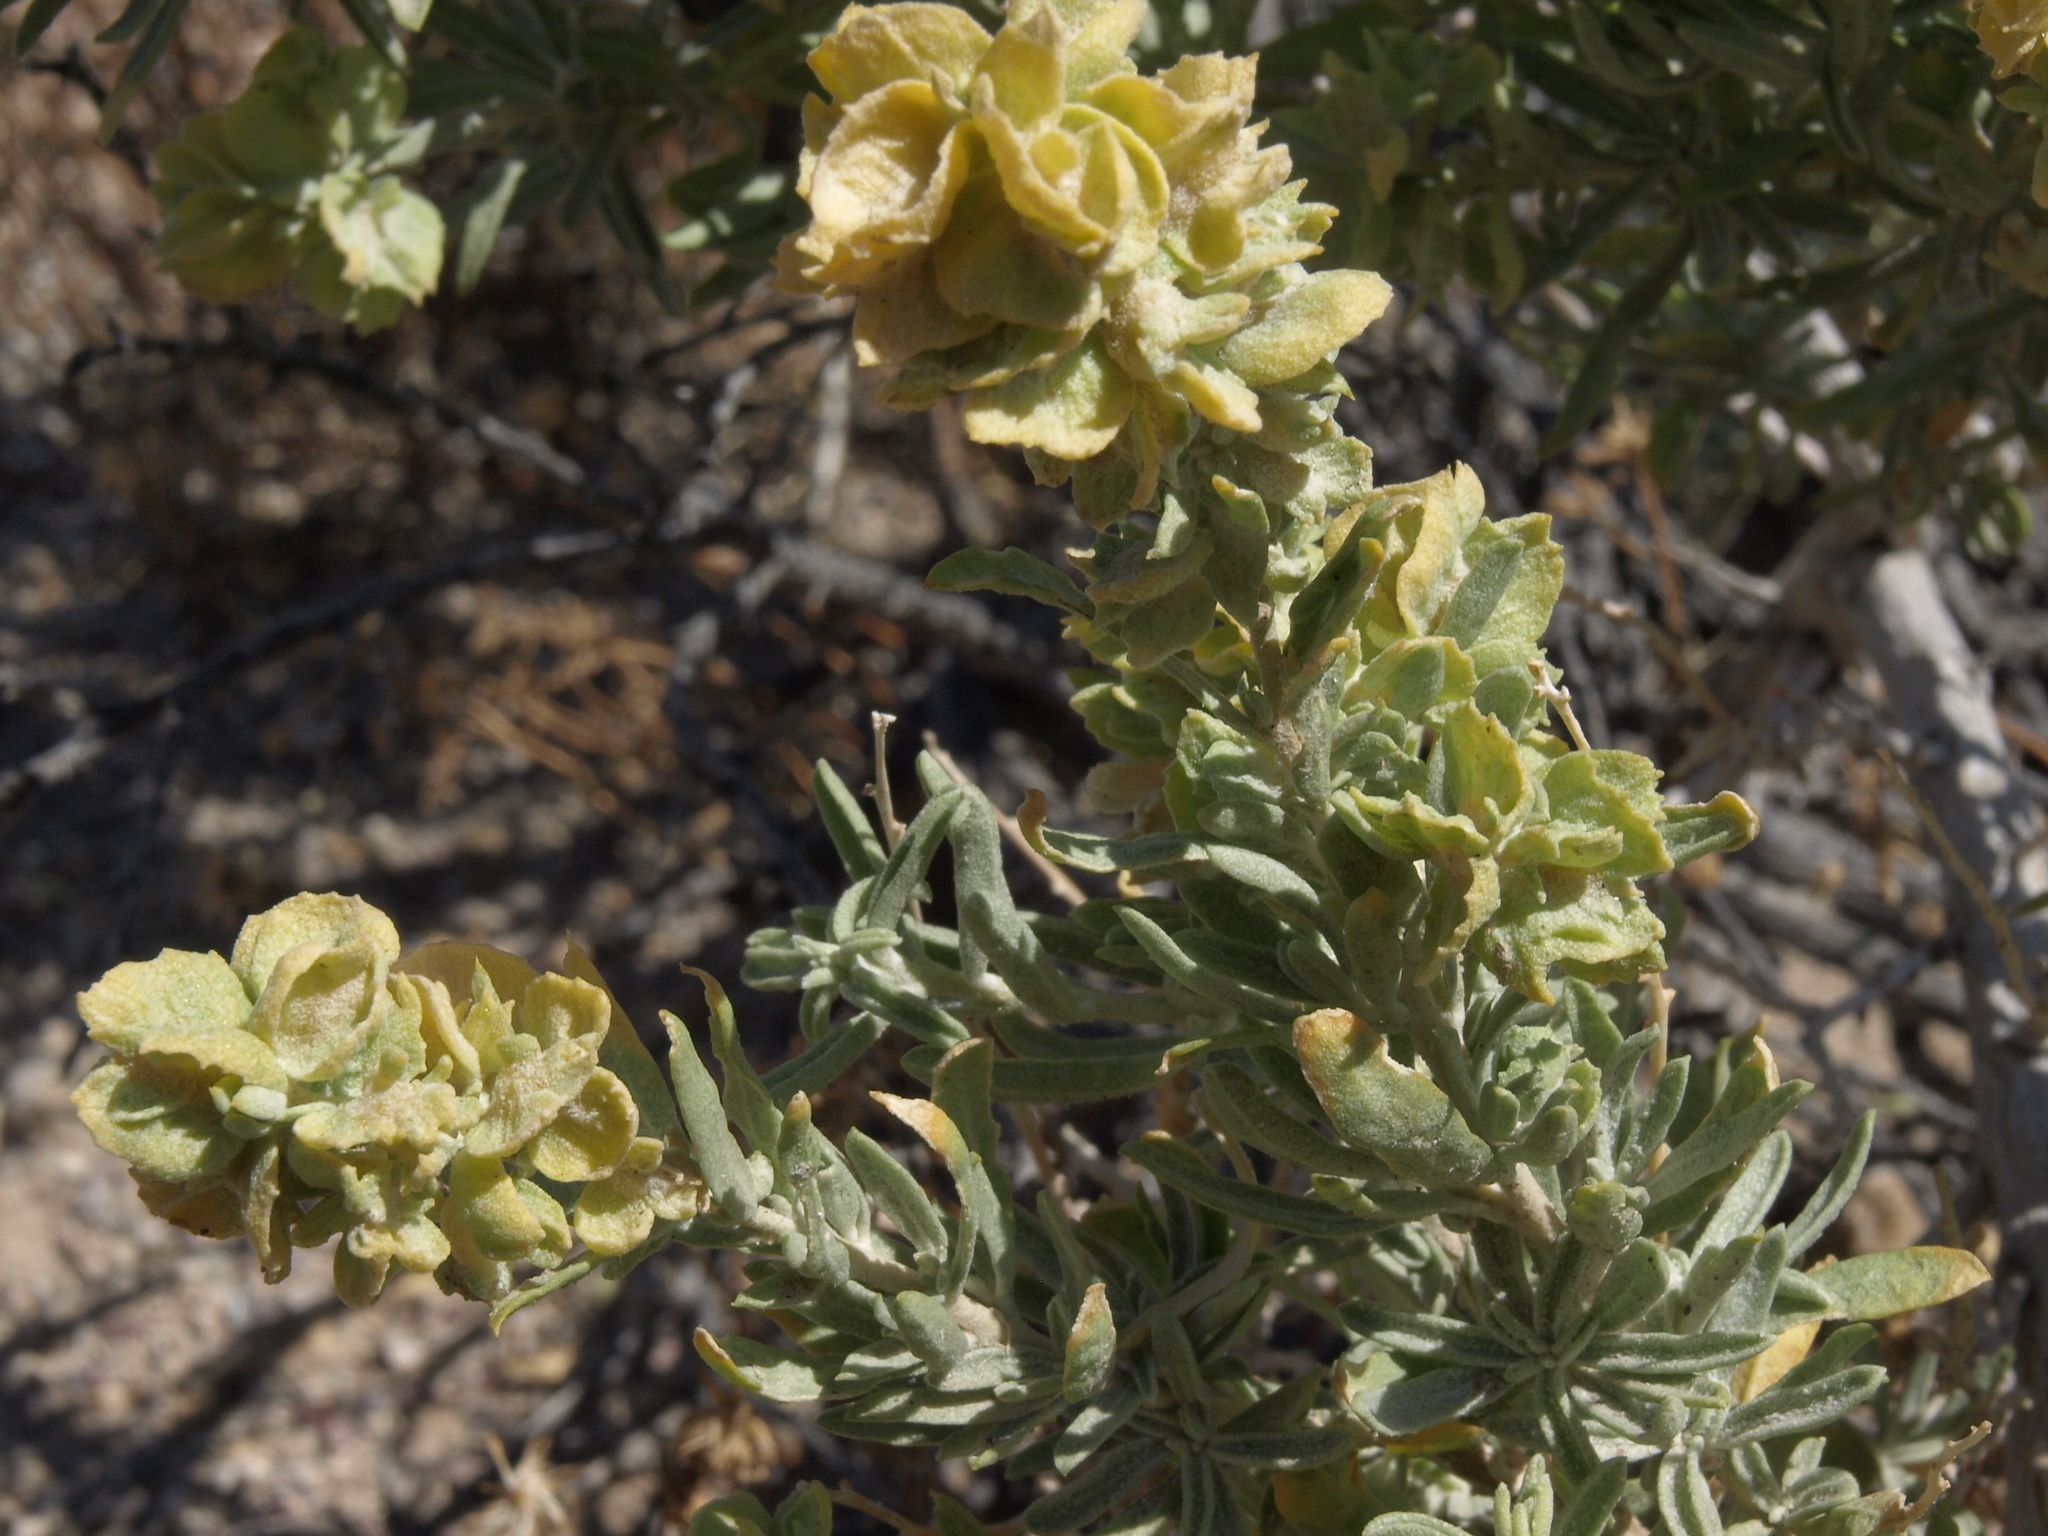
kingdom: Plantae
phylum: Tracheophyta
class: Magnoliopsida
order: Caryophyllales
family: Amaranthaceae
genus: Atriplex
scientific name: Atriplex canescens
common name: Four-wing saltbush
